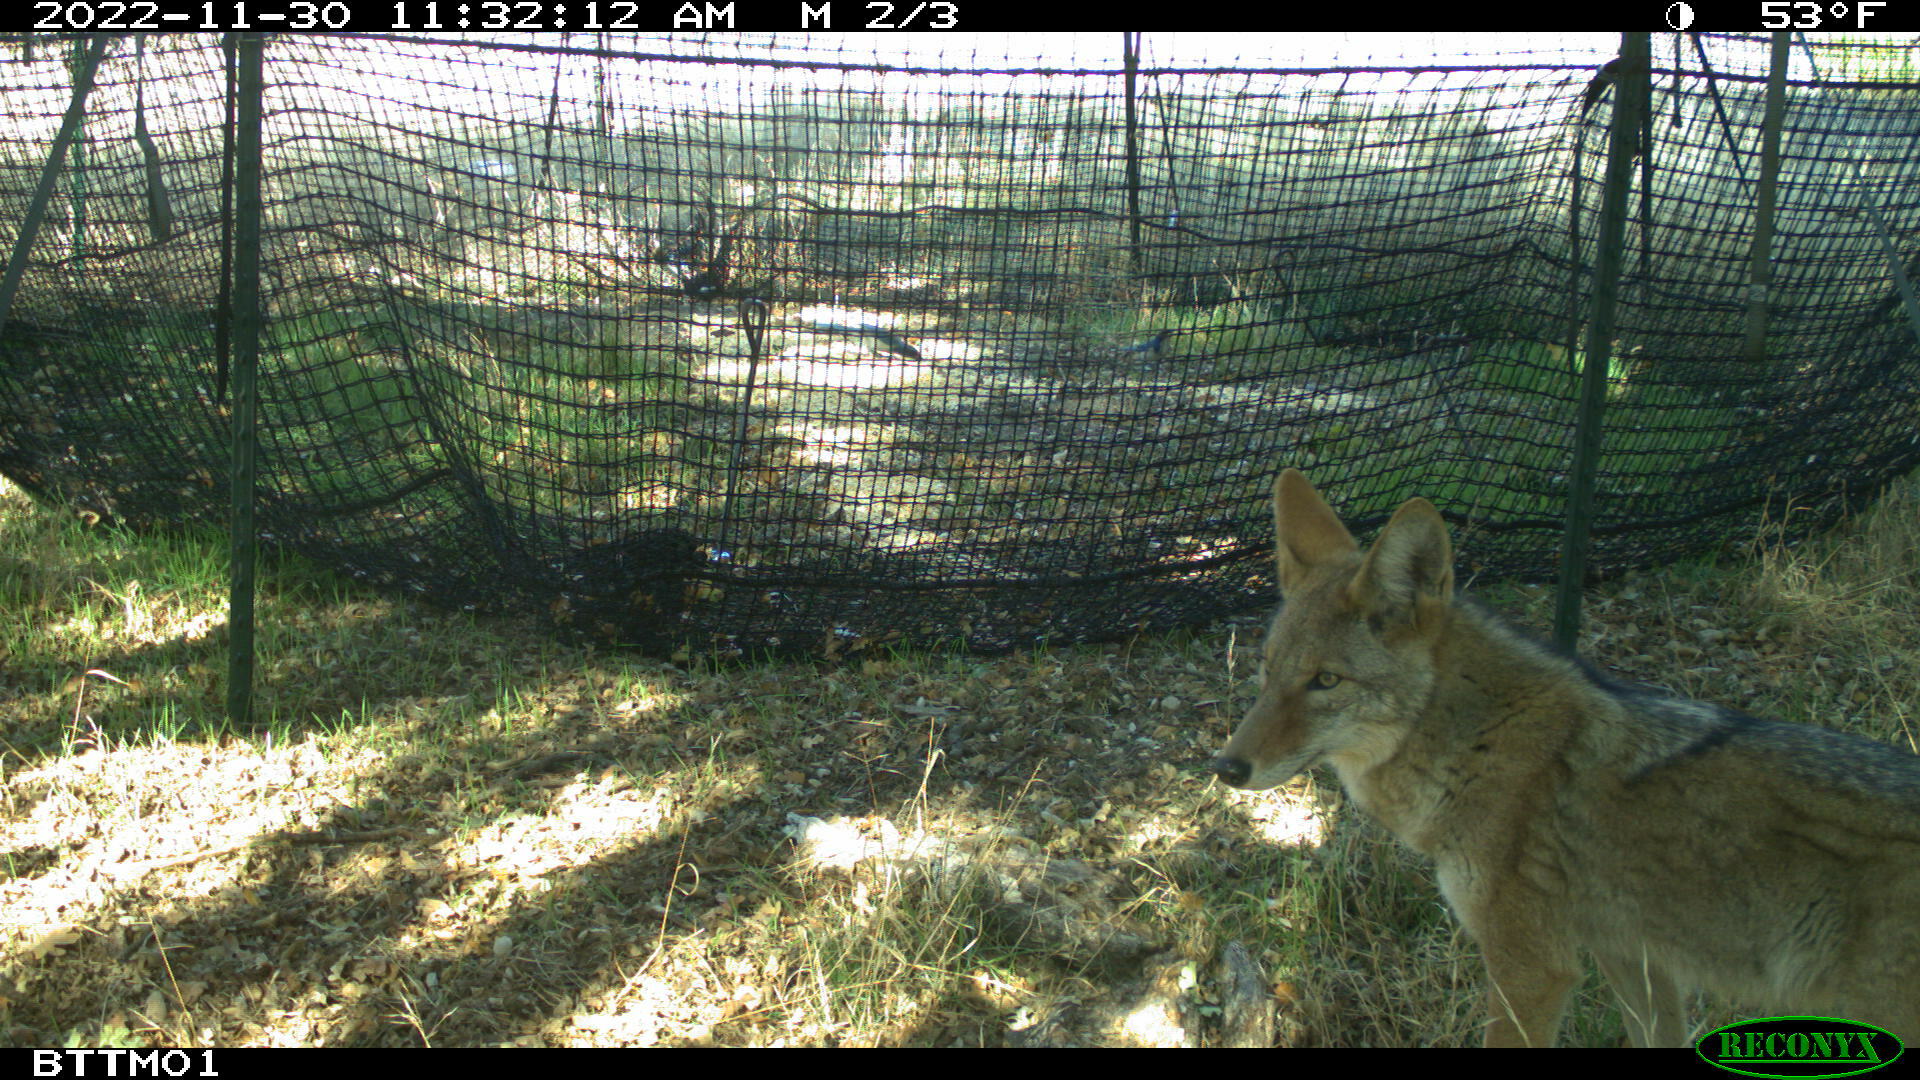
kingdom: Animalia
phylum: Chordata
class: Mammalia
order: Carnivora
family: Canidae
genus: Canis
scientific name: Canis latrans
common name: Coyote
